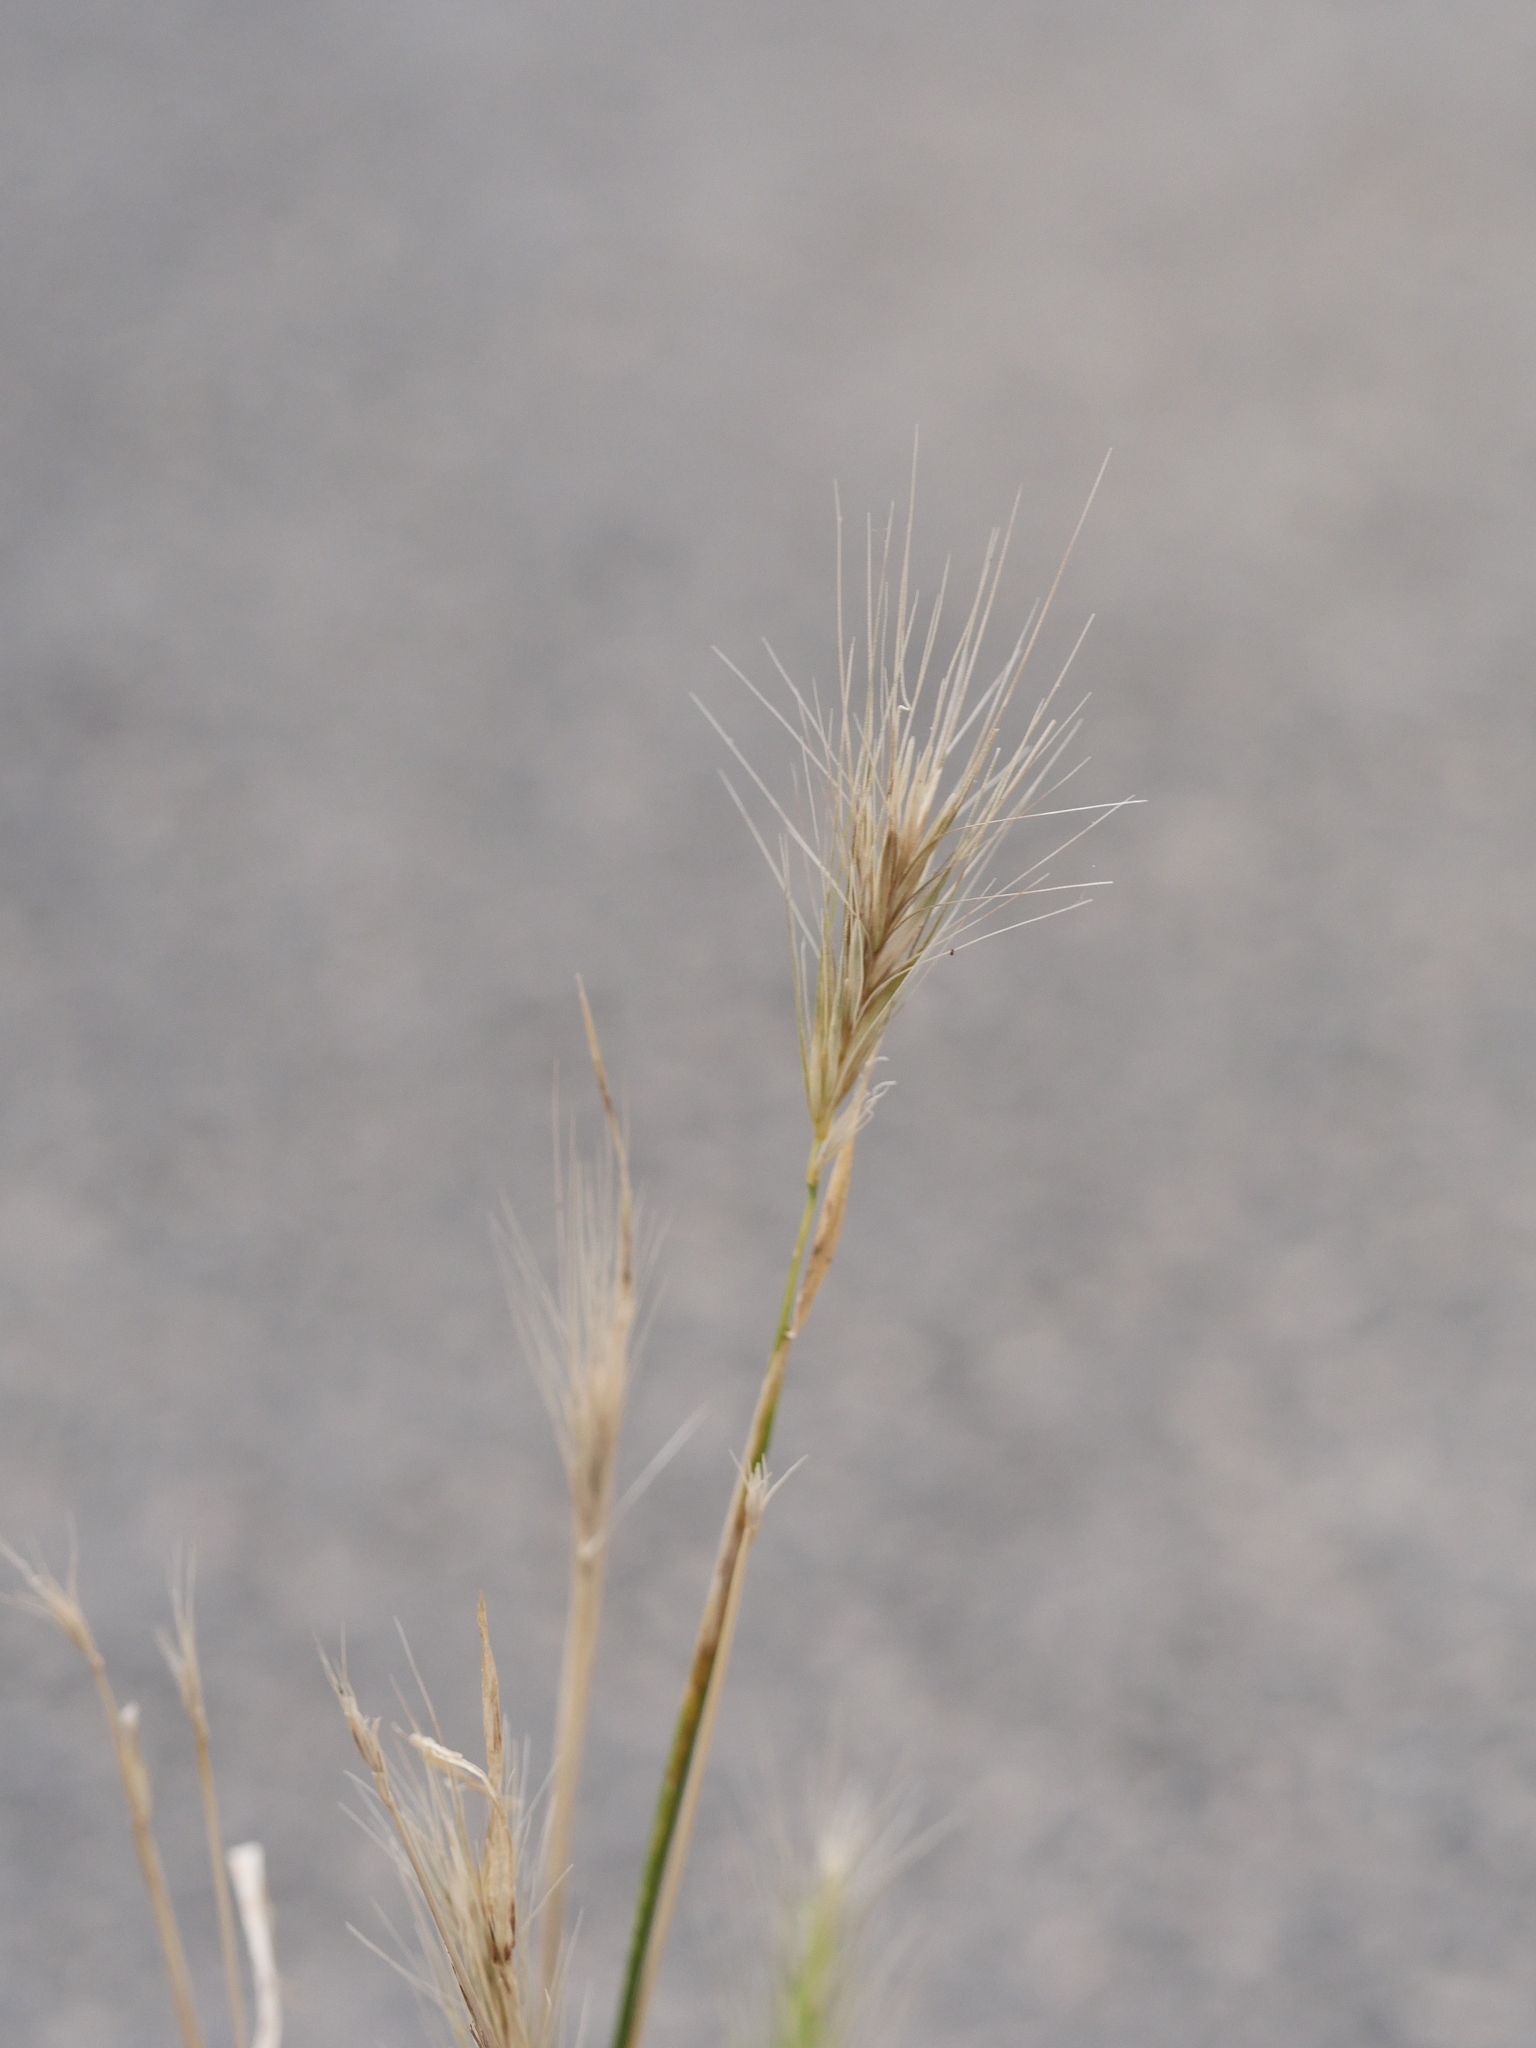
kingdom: Plantae
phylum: Tracheophyta
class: Liliopsida
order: Poales
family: Poaceae
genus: Hordeum
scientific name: Hordeum murinum
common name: Wall barley
